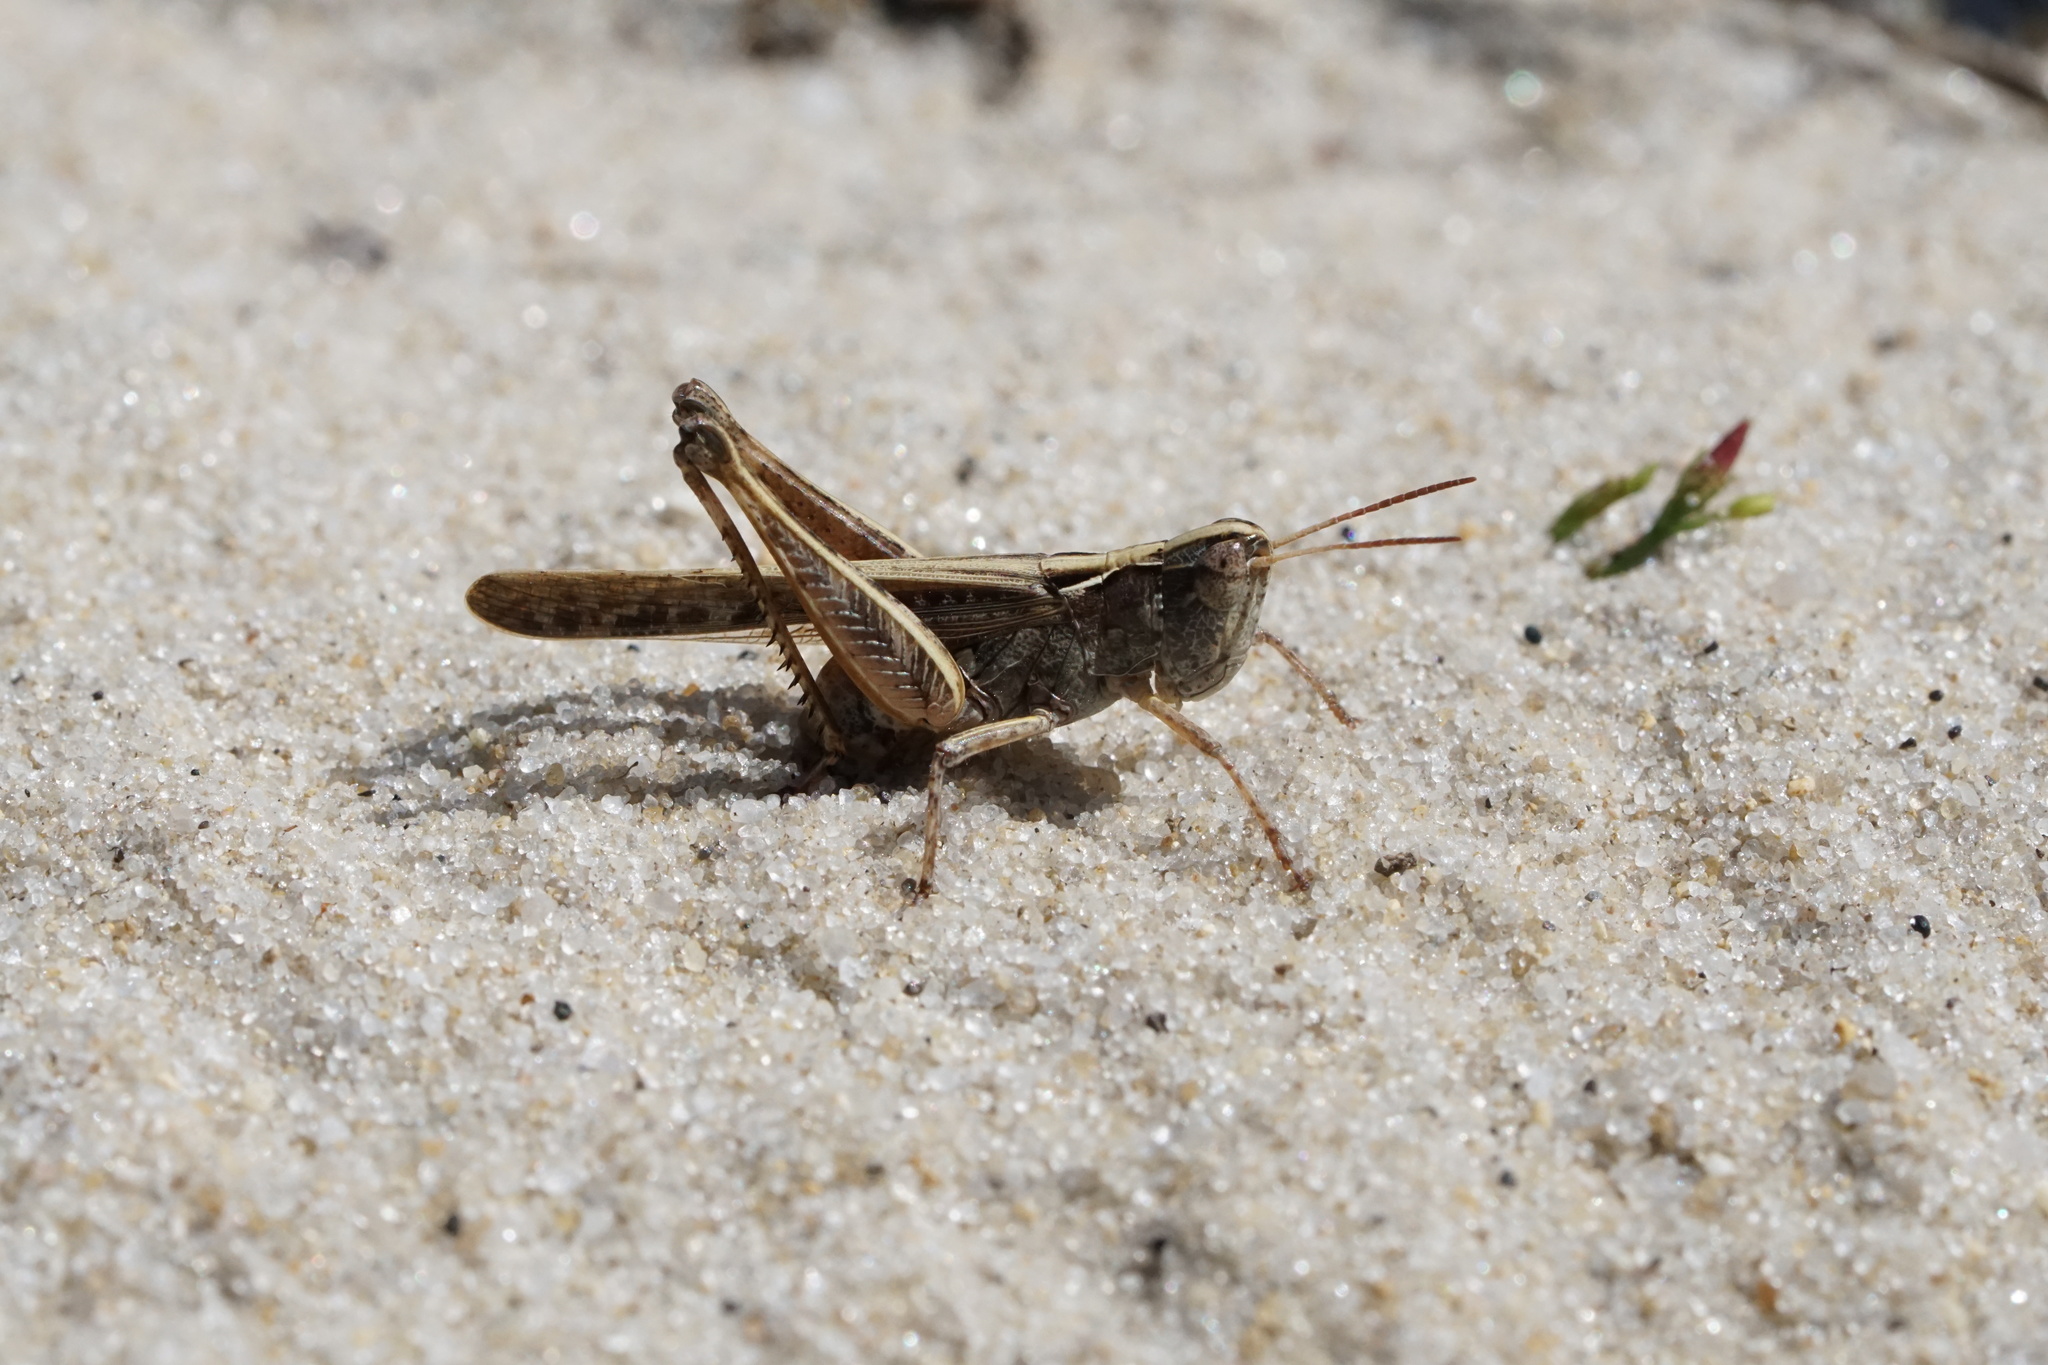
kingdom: Animalia
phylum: Arthropoda
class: Insecta
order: Orthoptera
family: Acrididae
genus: Orphulella
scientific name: Orphulella pelidna
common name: Spotted-wing grasshopper
